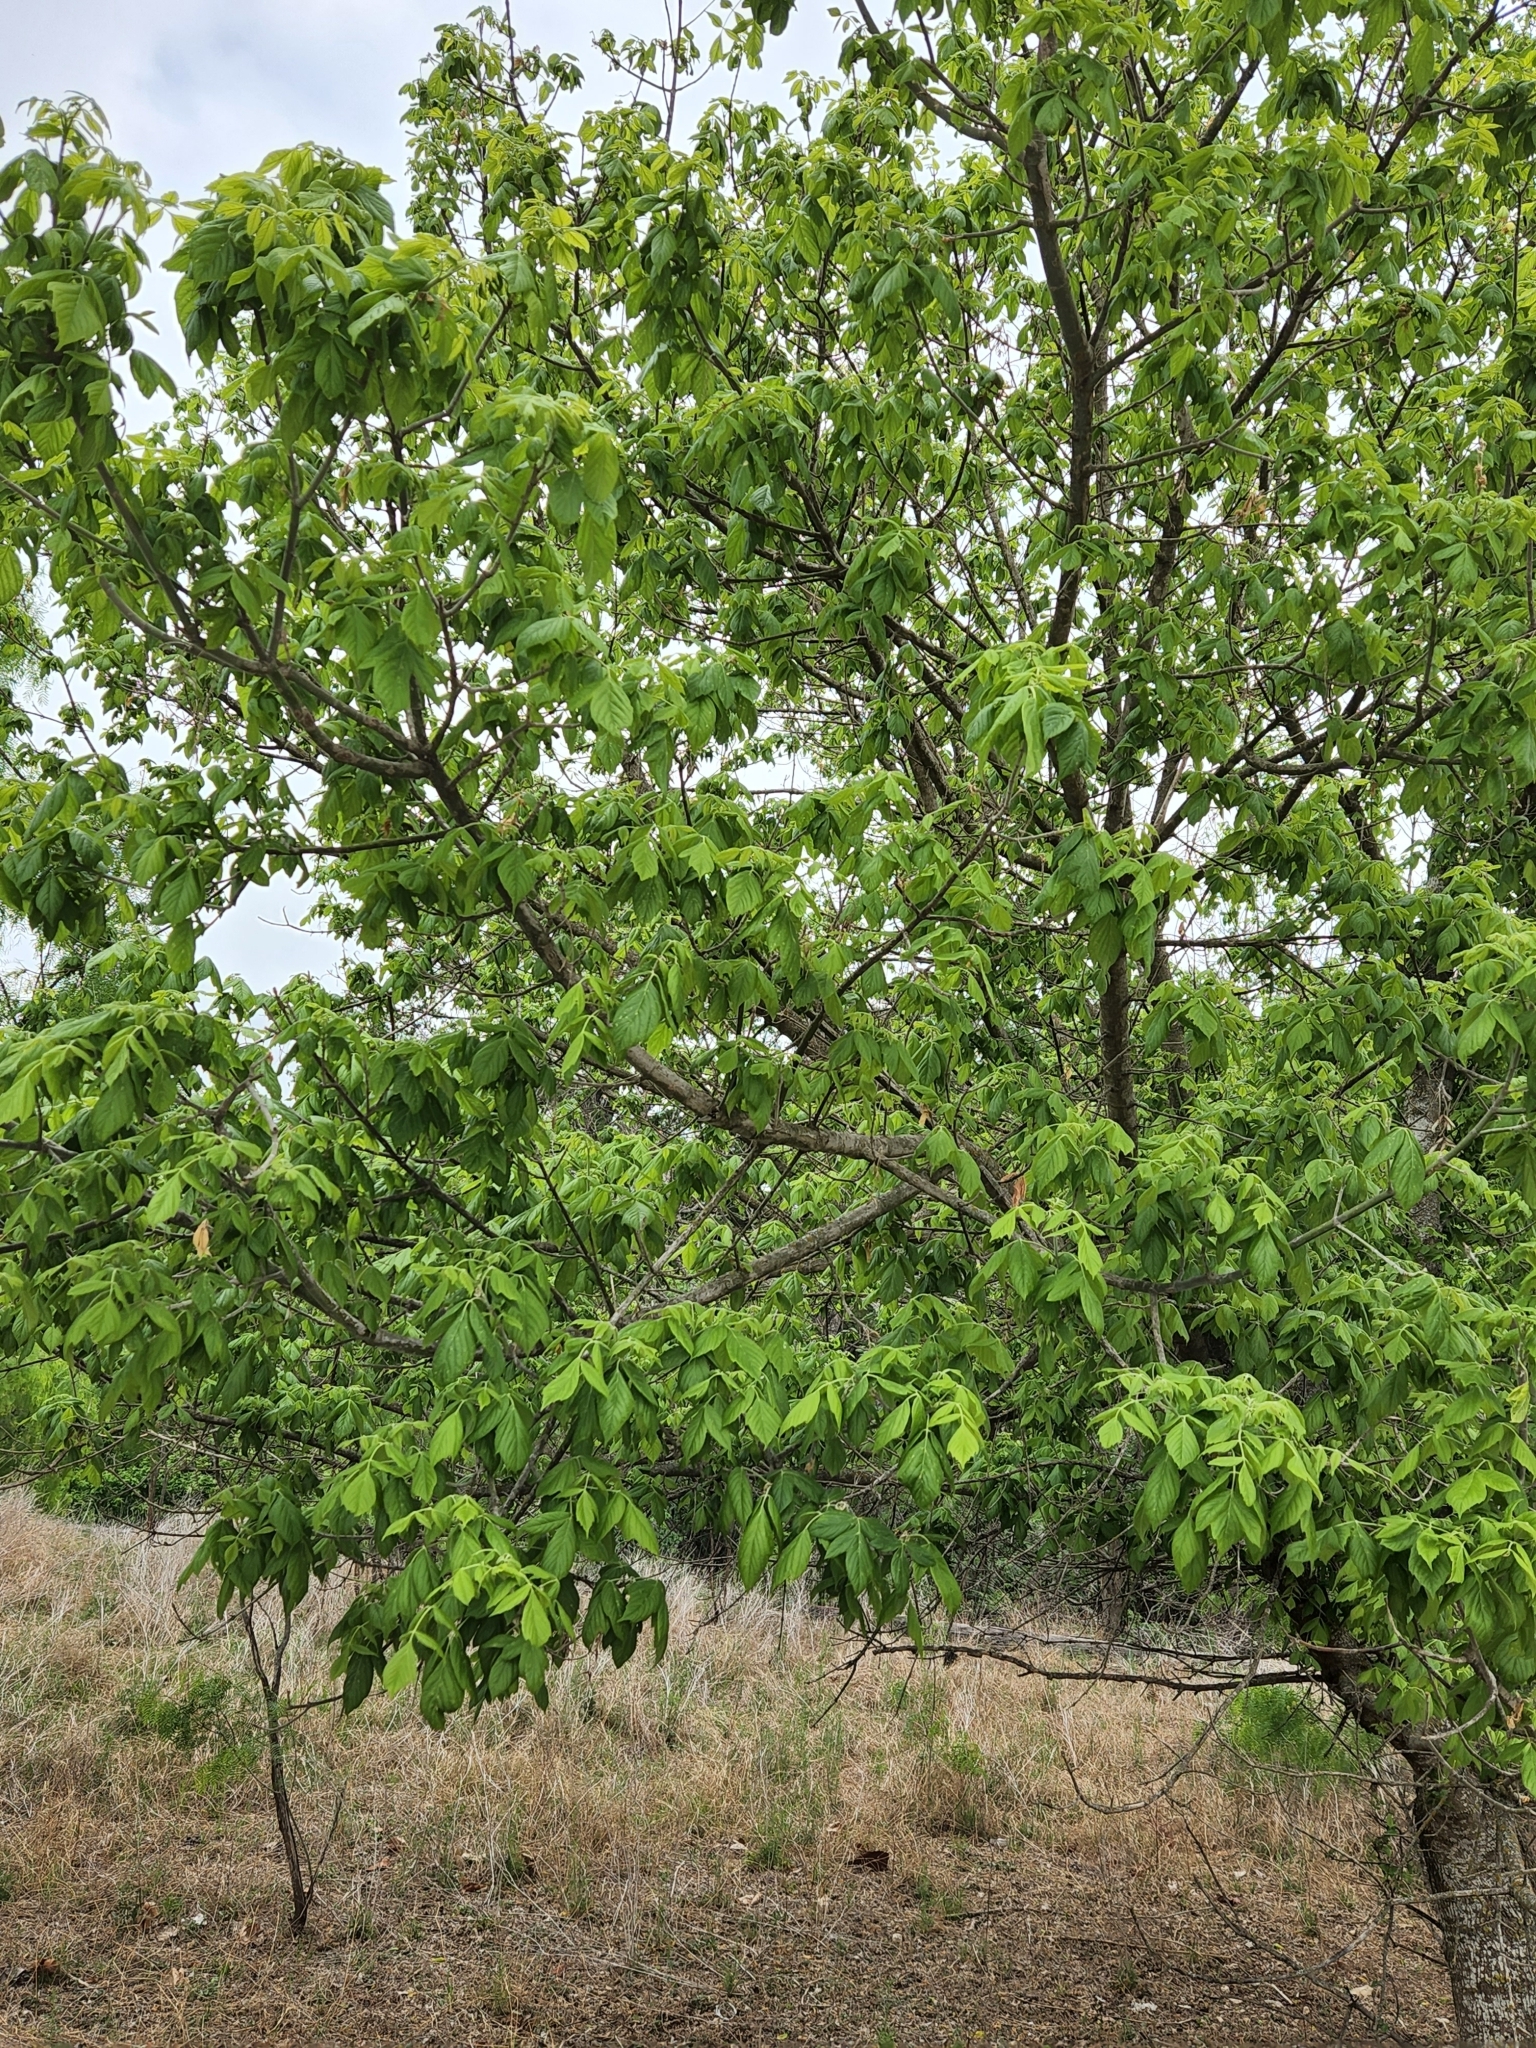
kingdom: Plantae
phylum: Tracheophyta
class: Magnoliopsida
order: Sapindales
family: Sapindaceae
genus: Acer
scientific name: Acer negundo
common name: Ashleaf maple
